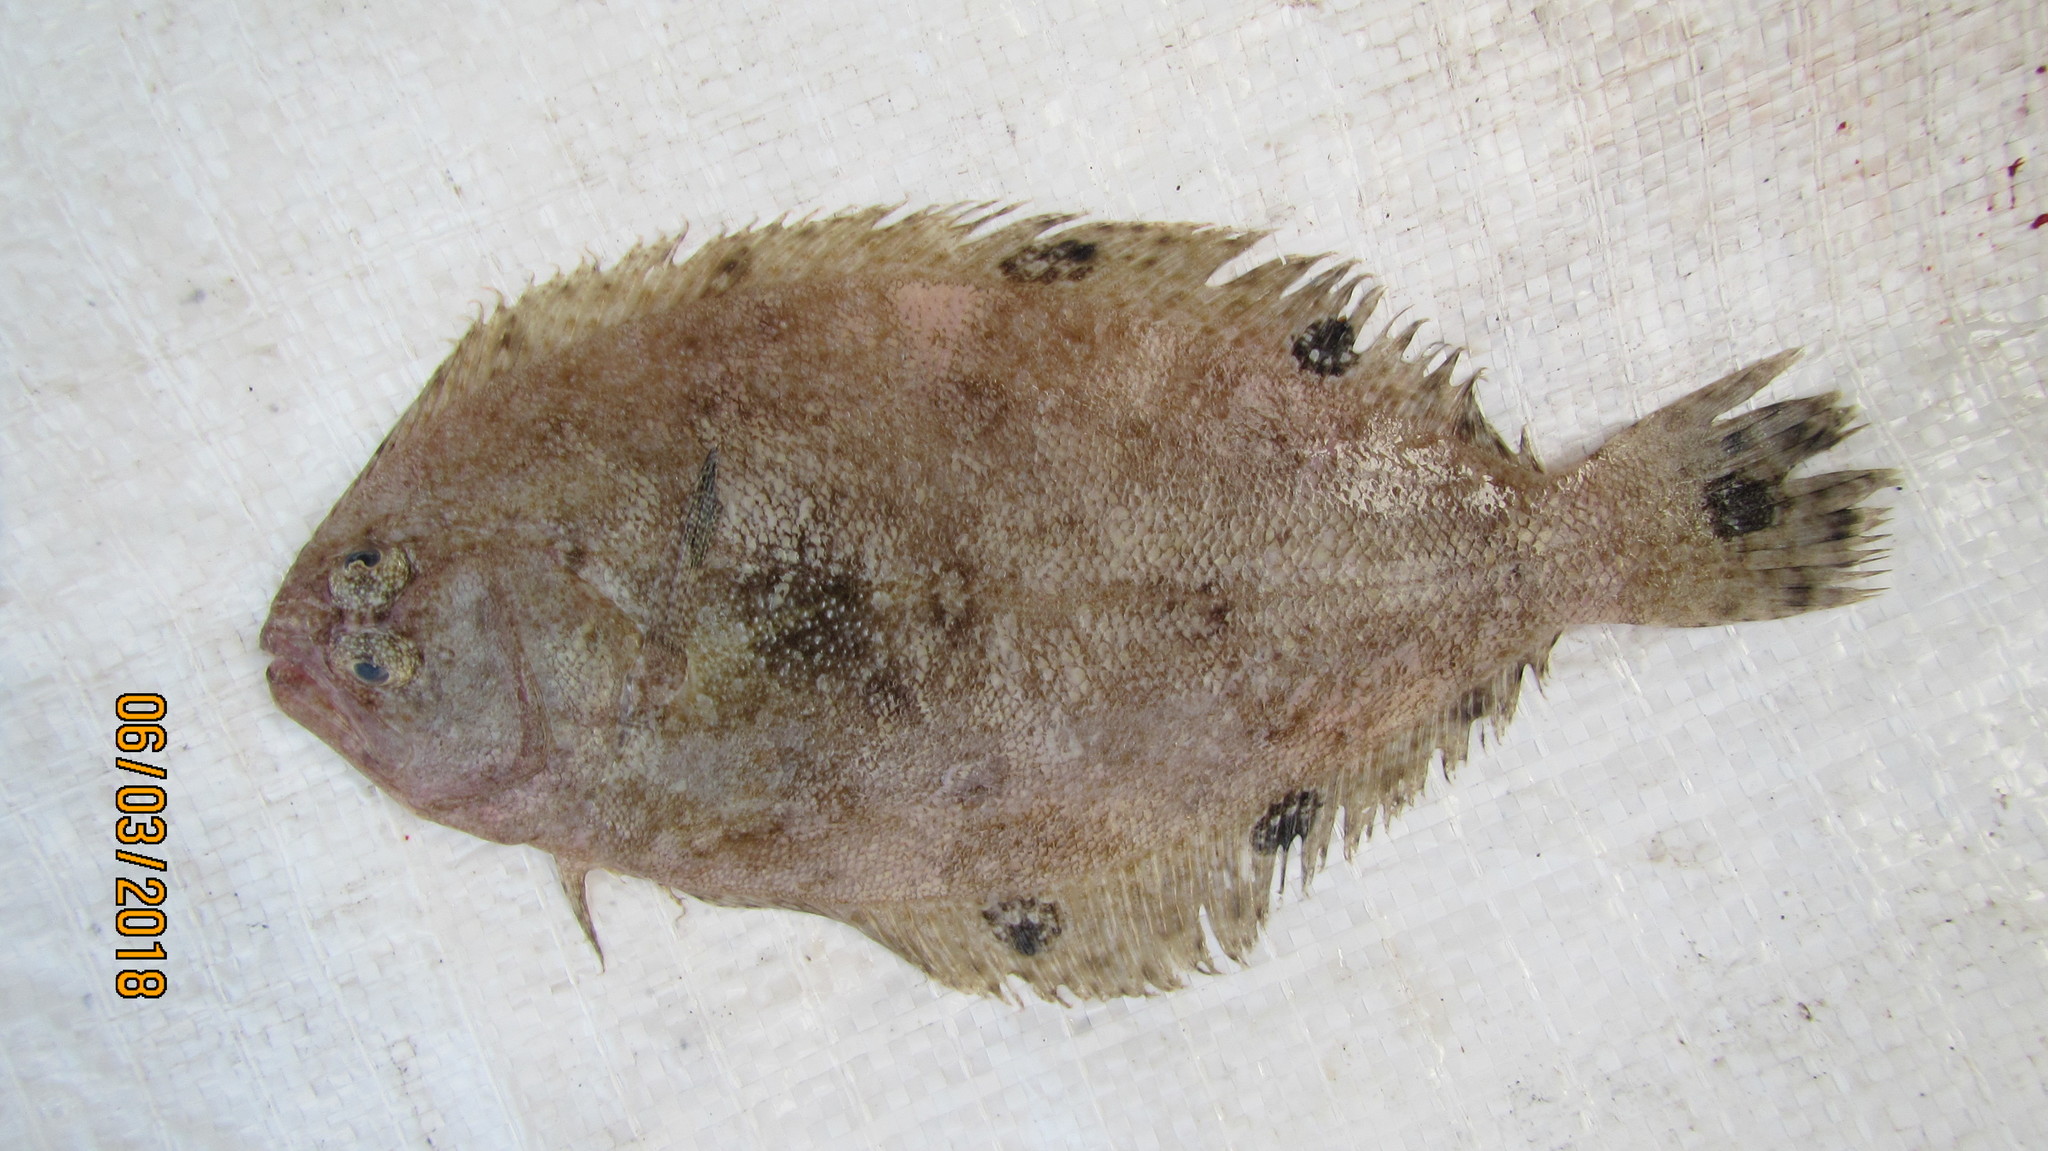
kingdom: Animalia
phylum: Chordata
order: Pleuronectiformes
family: Paralichthyidae
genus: Cyclopsetta
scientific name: Cyclopsetta fimbriata
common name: Spotfin flounder
